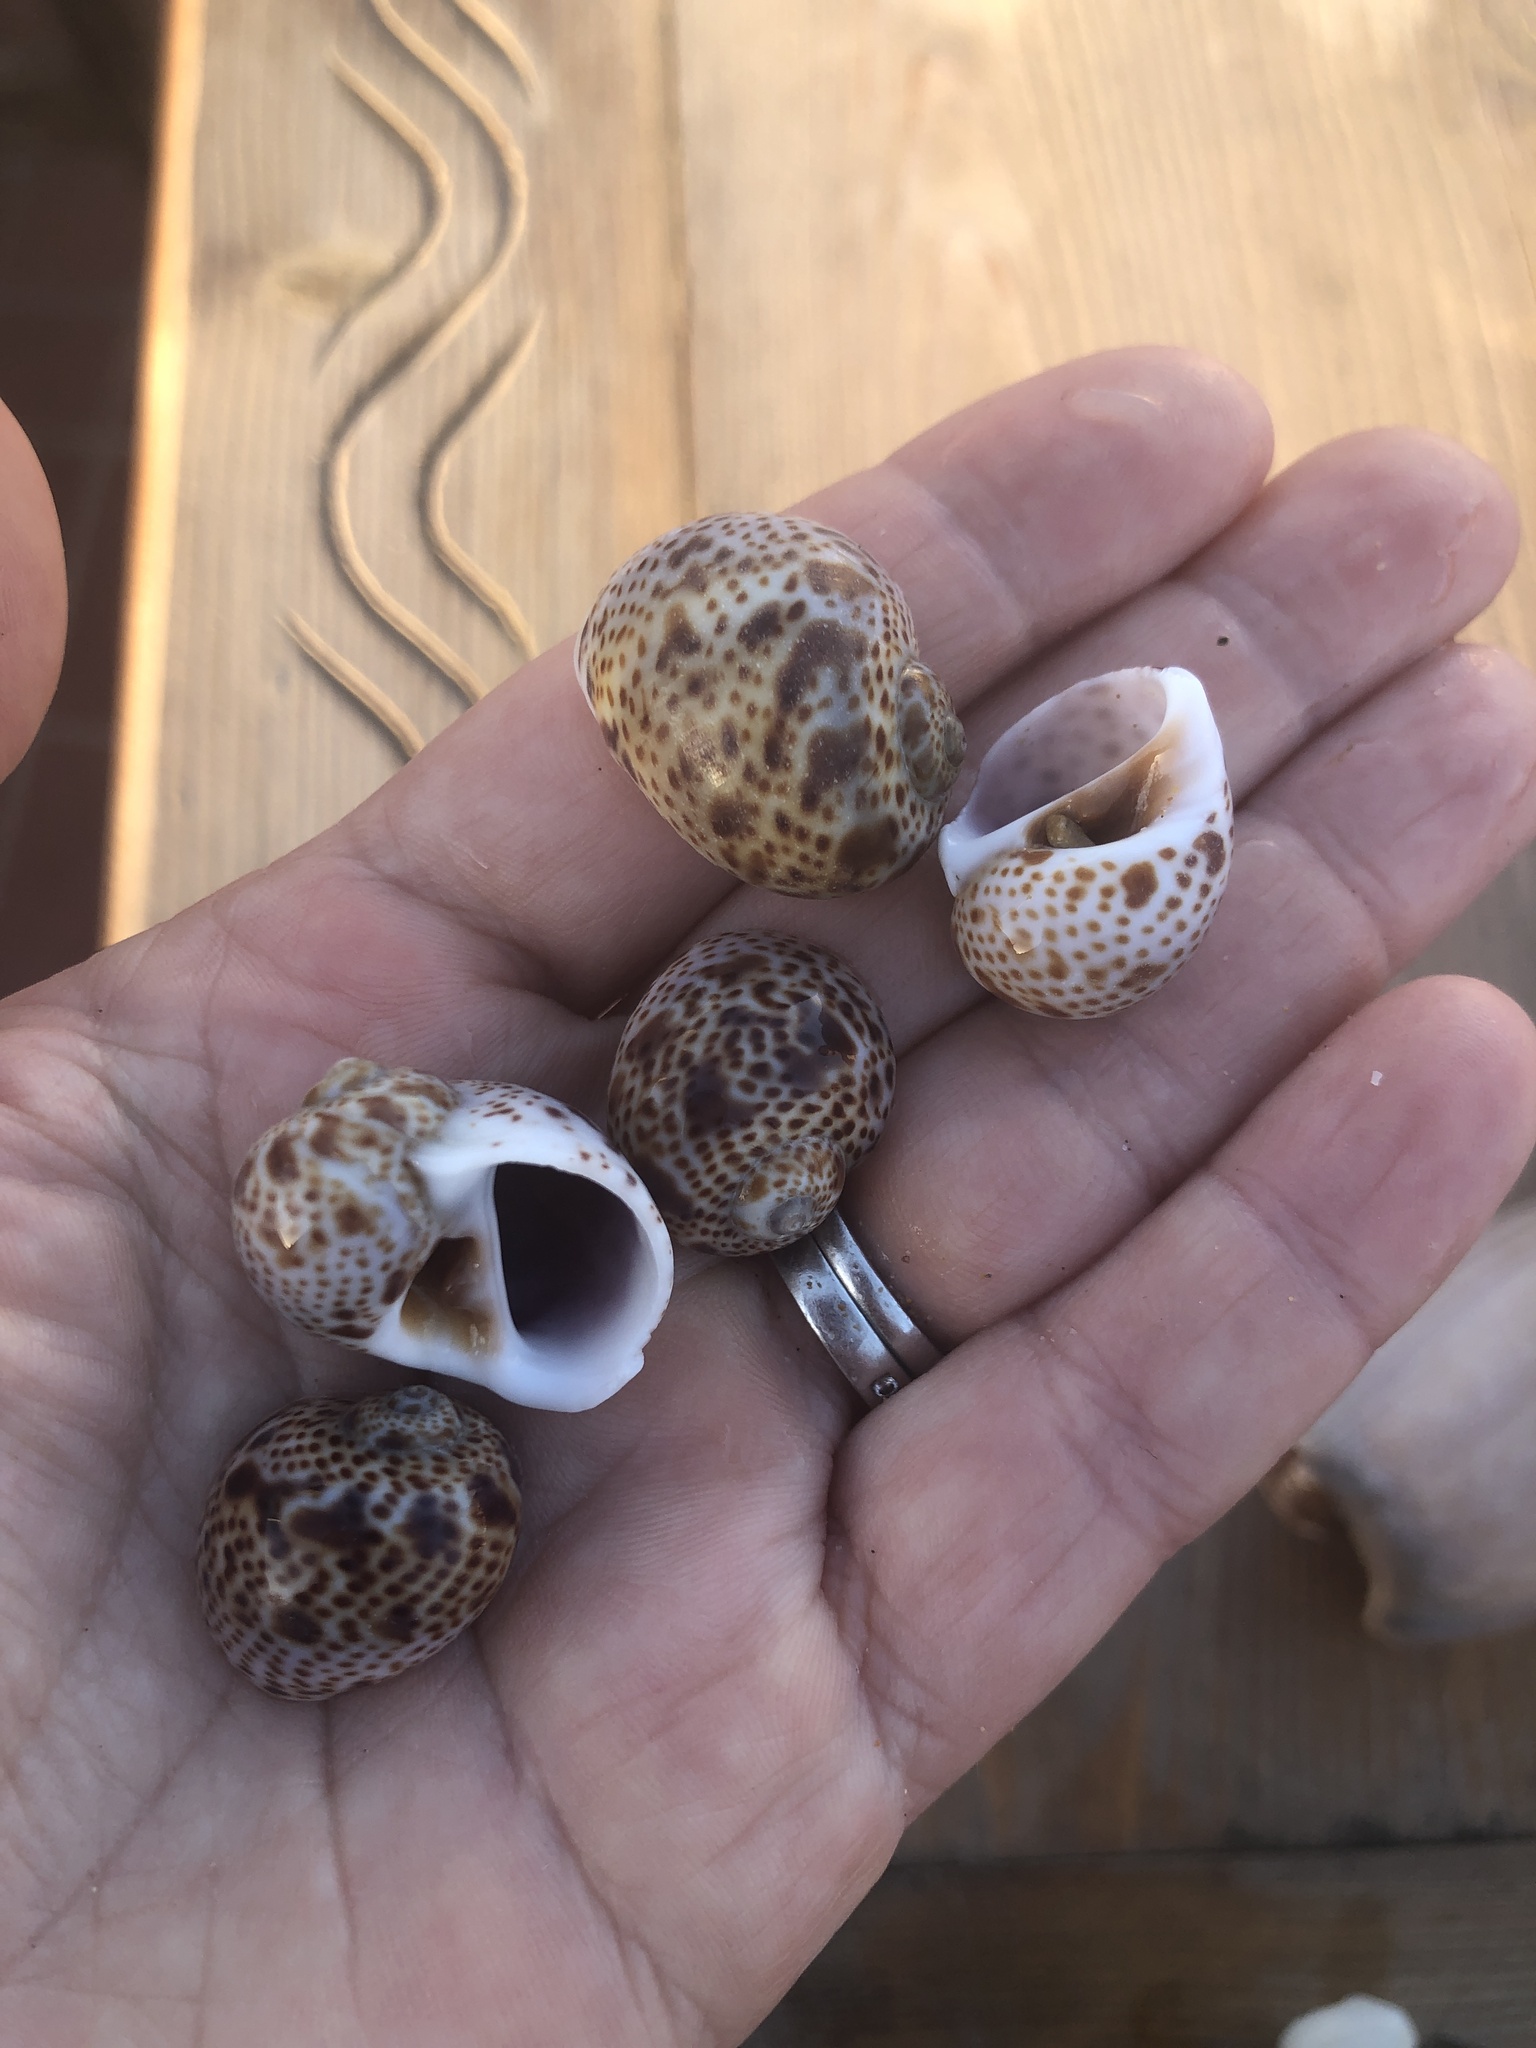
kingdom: Animalia
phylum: Mollusca
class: Gastropoda
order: Littorinimorpha
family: Naticidae
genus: Natica
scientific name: Natica multipunctata
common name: Fanel moonsnail
